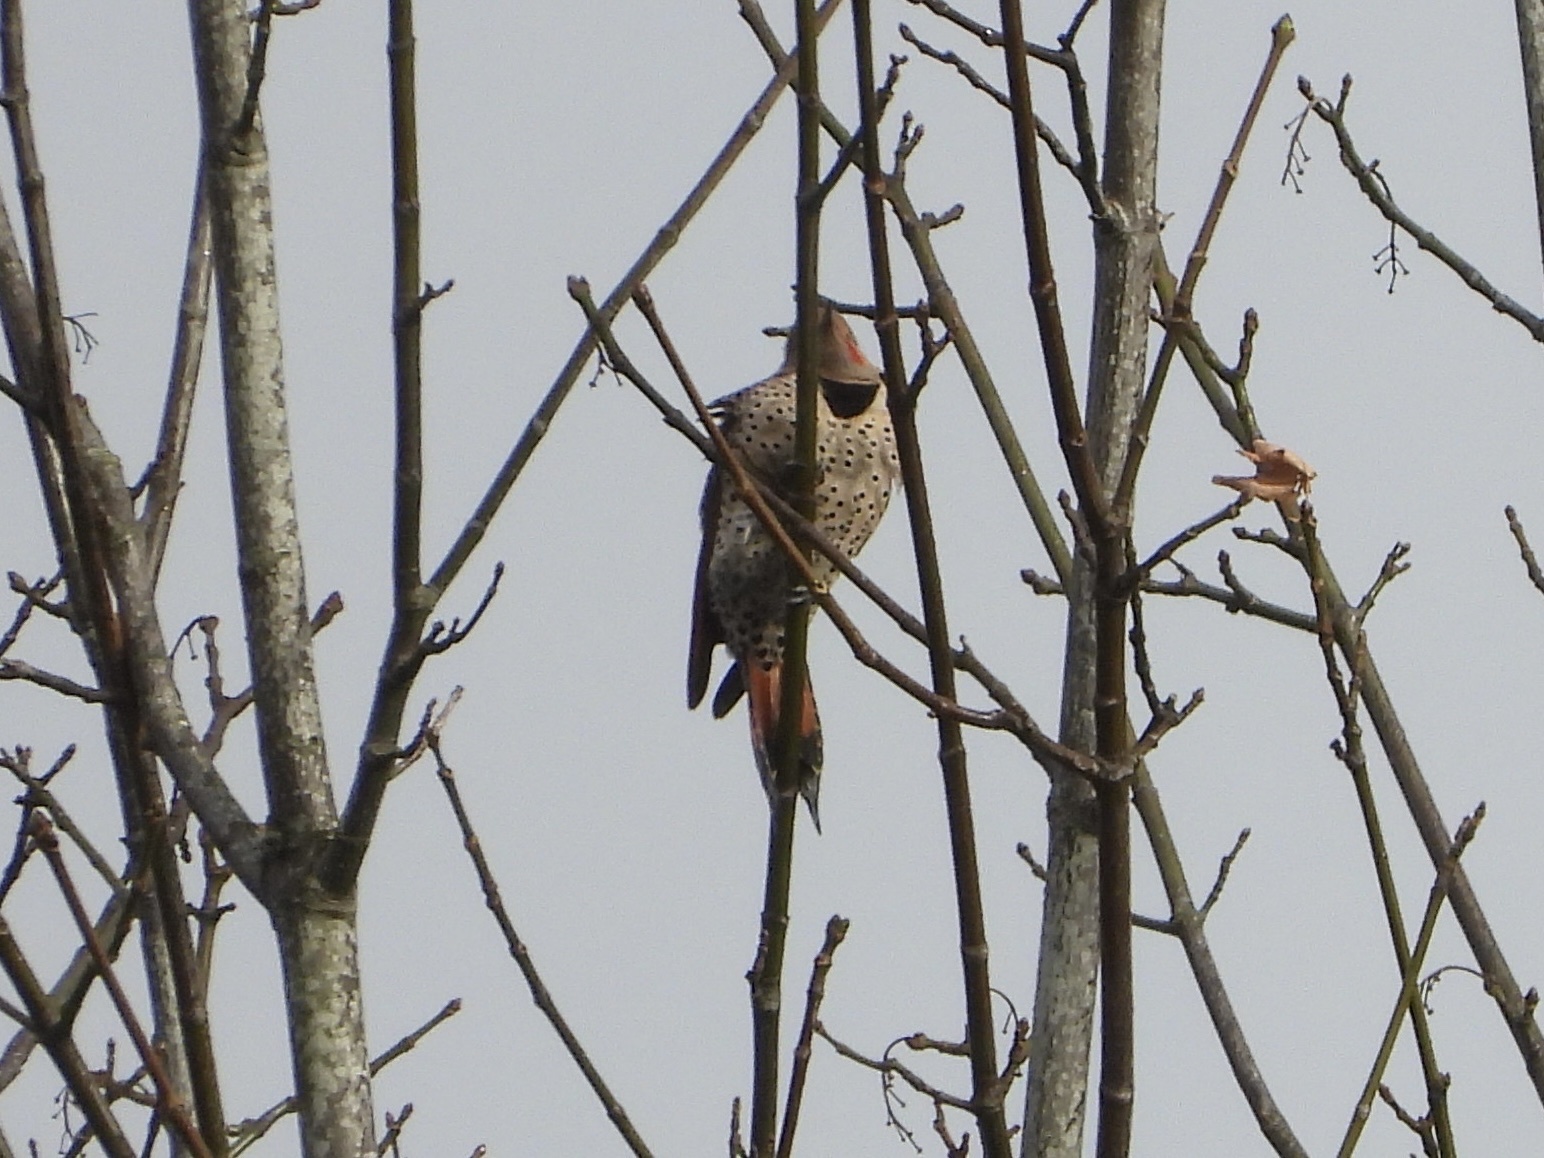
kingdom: Animalia
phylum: Chordata
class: Aves
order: Piciformes
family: Picidae
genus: Colaptes
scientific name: Colaptes auratus
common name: Northern flicker
